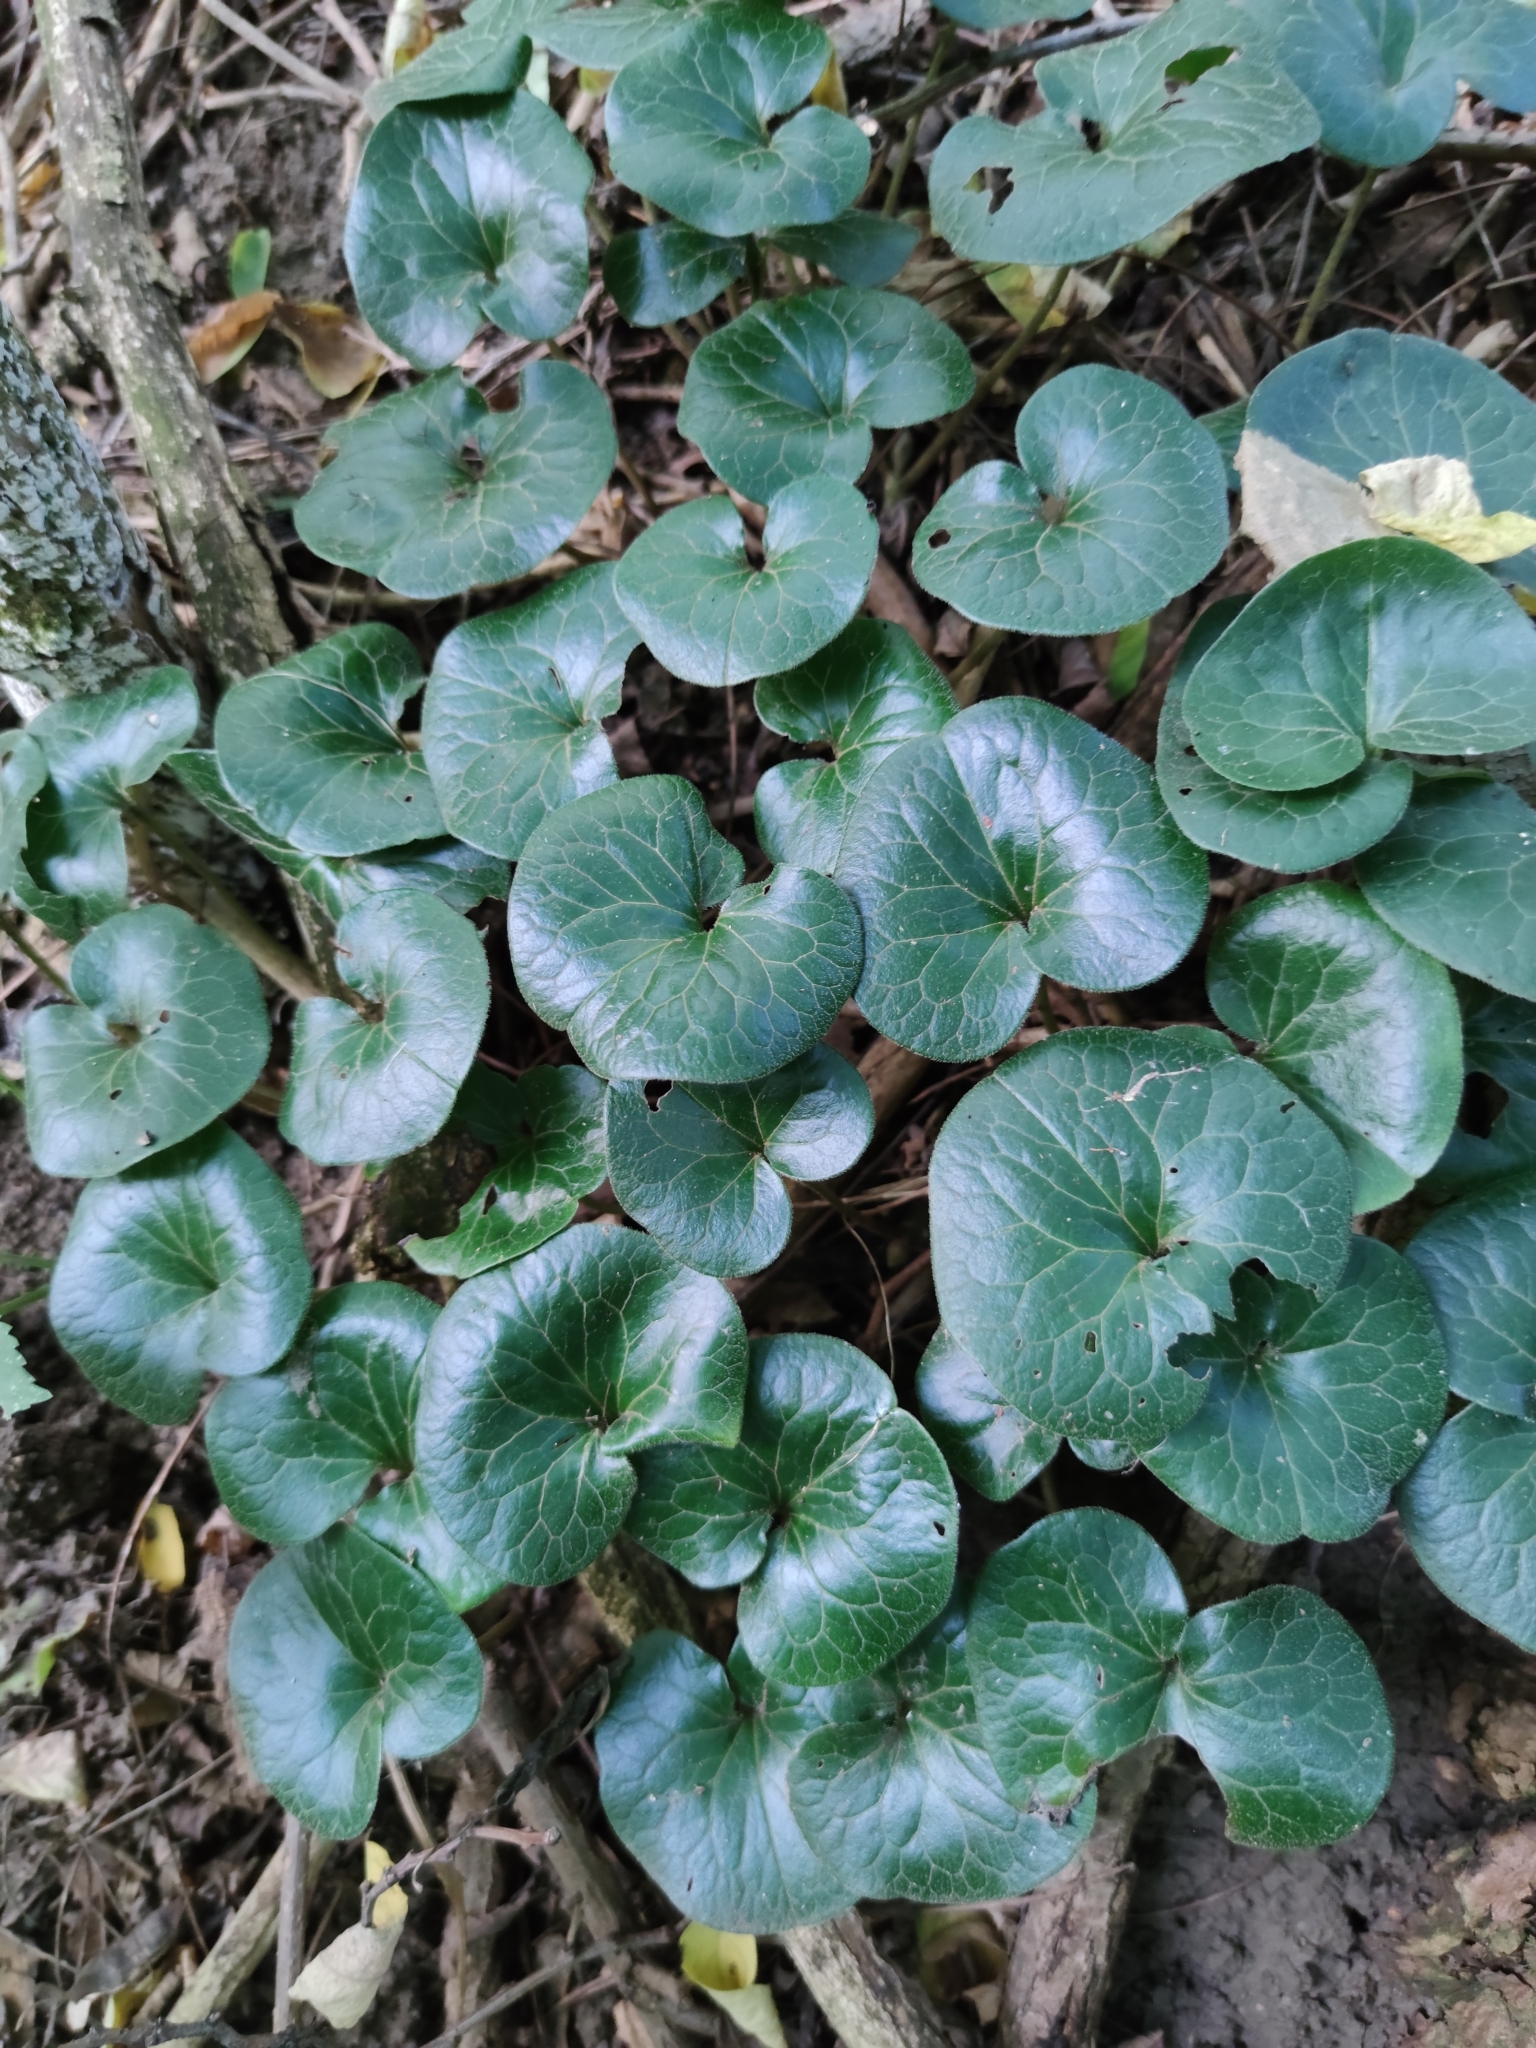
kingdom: Plantae
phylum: Tracheophyta
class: Magnoliopsida
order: Piperales
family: Aristolochiaceae
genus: Asarum
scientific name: Asarum europaeum
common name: Asarabacca
